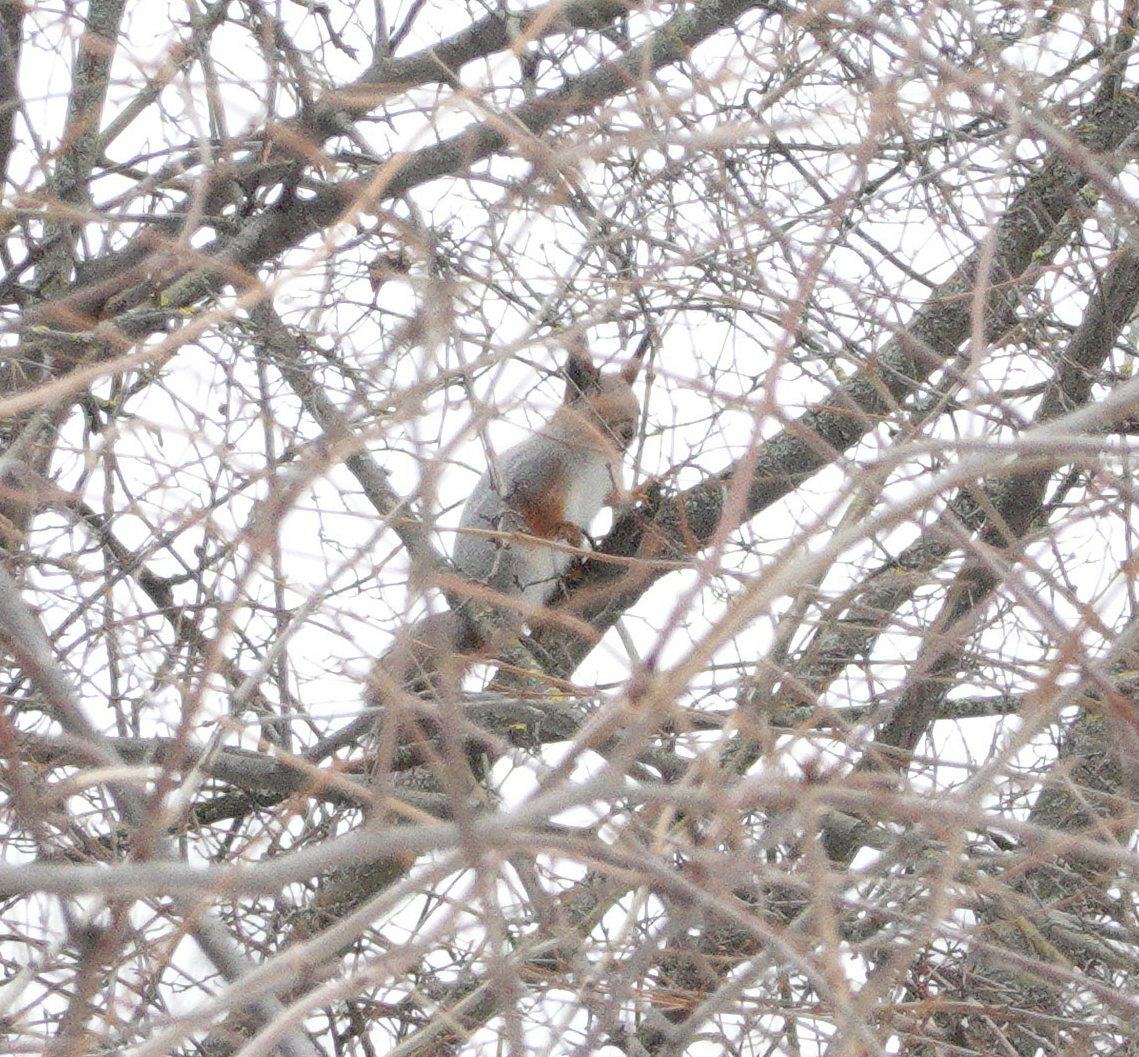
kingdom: Animalia
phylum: Chordata
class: Mammalia
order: Rodentia
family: Sciuridae
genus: Sciurus
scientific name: Sciurus vulgaris
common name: Eurasian red squirrel
